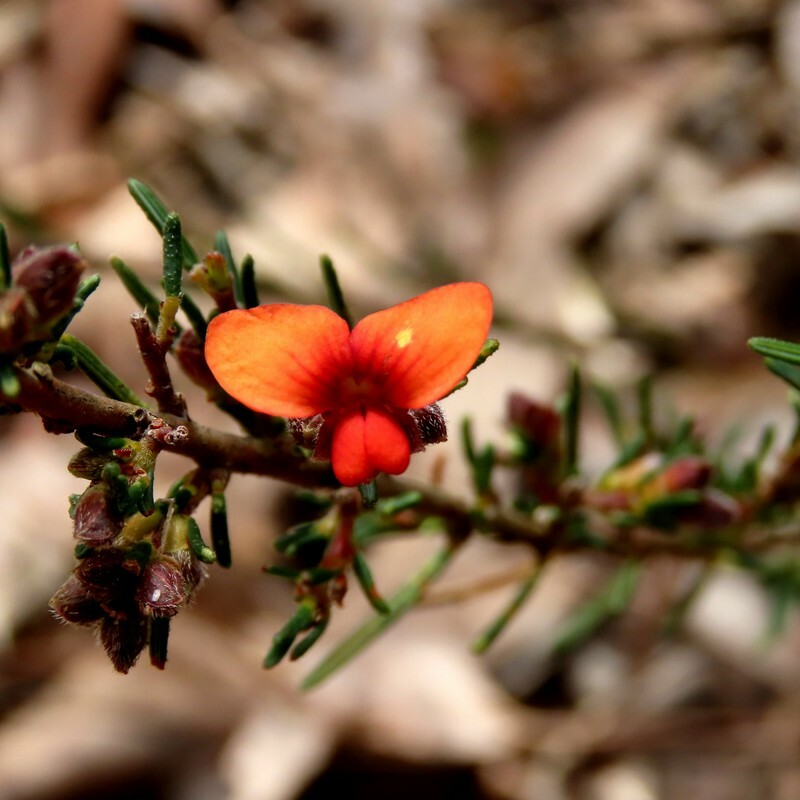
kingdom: Plantae
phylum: Tracheophyta
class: Magnoliopsida
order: Fabales
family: Fabaceae
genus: Dillwynia
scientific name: Dillwynia hispida
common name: Red parrot-pea
